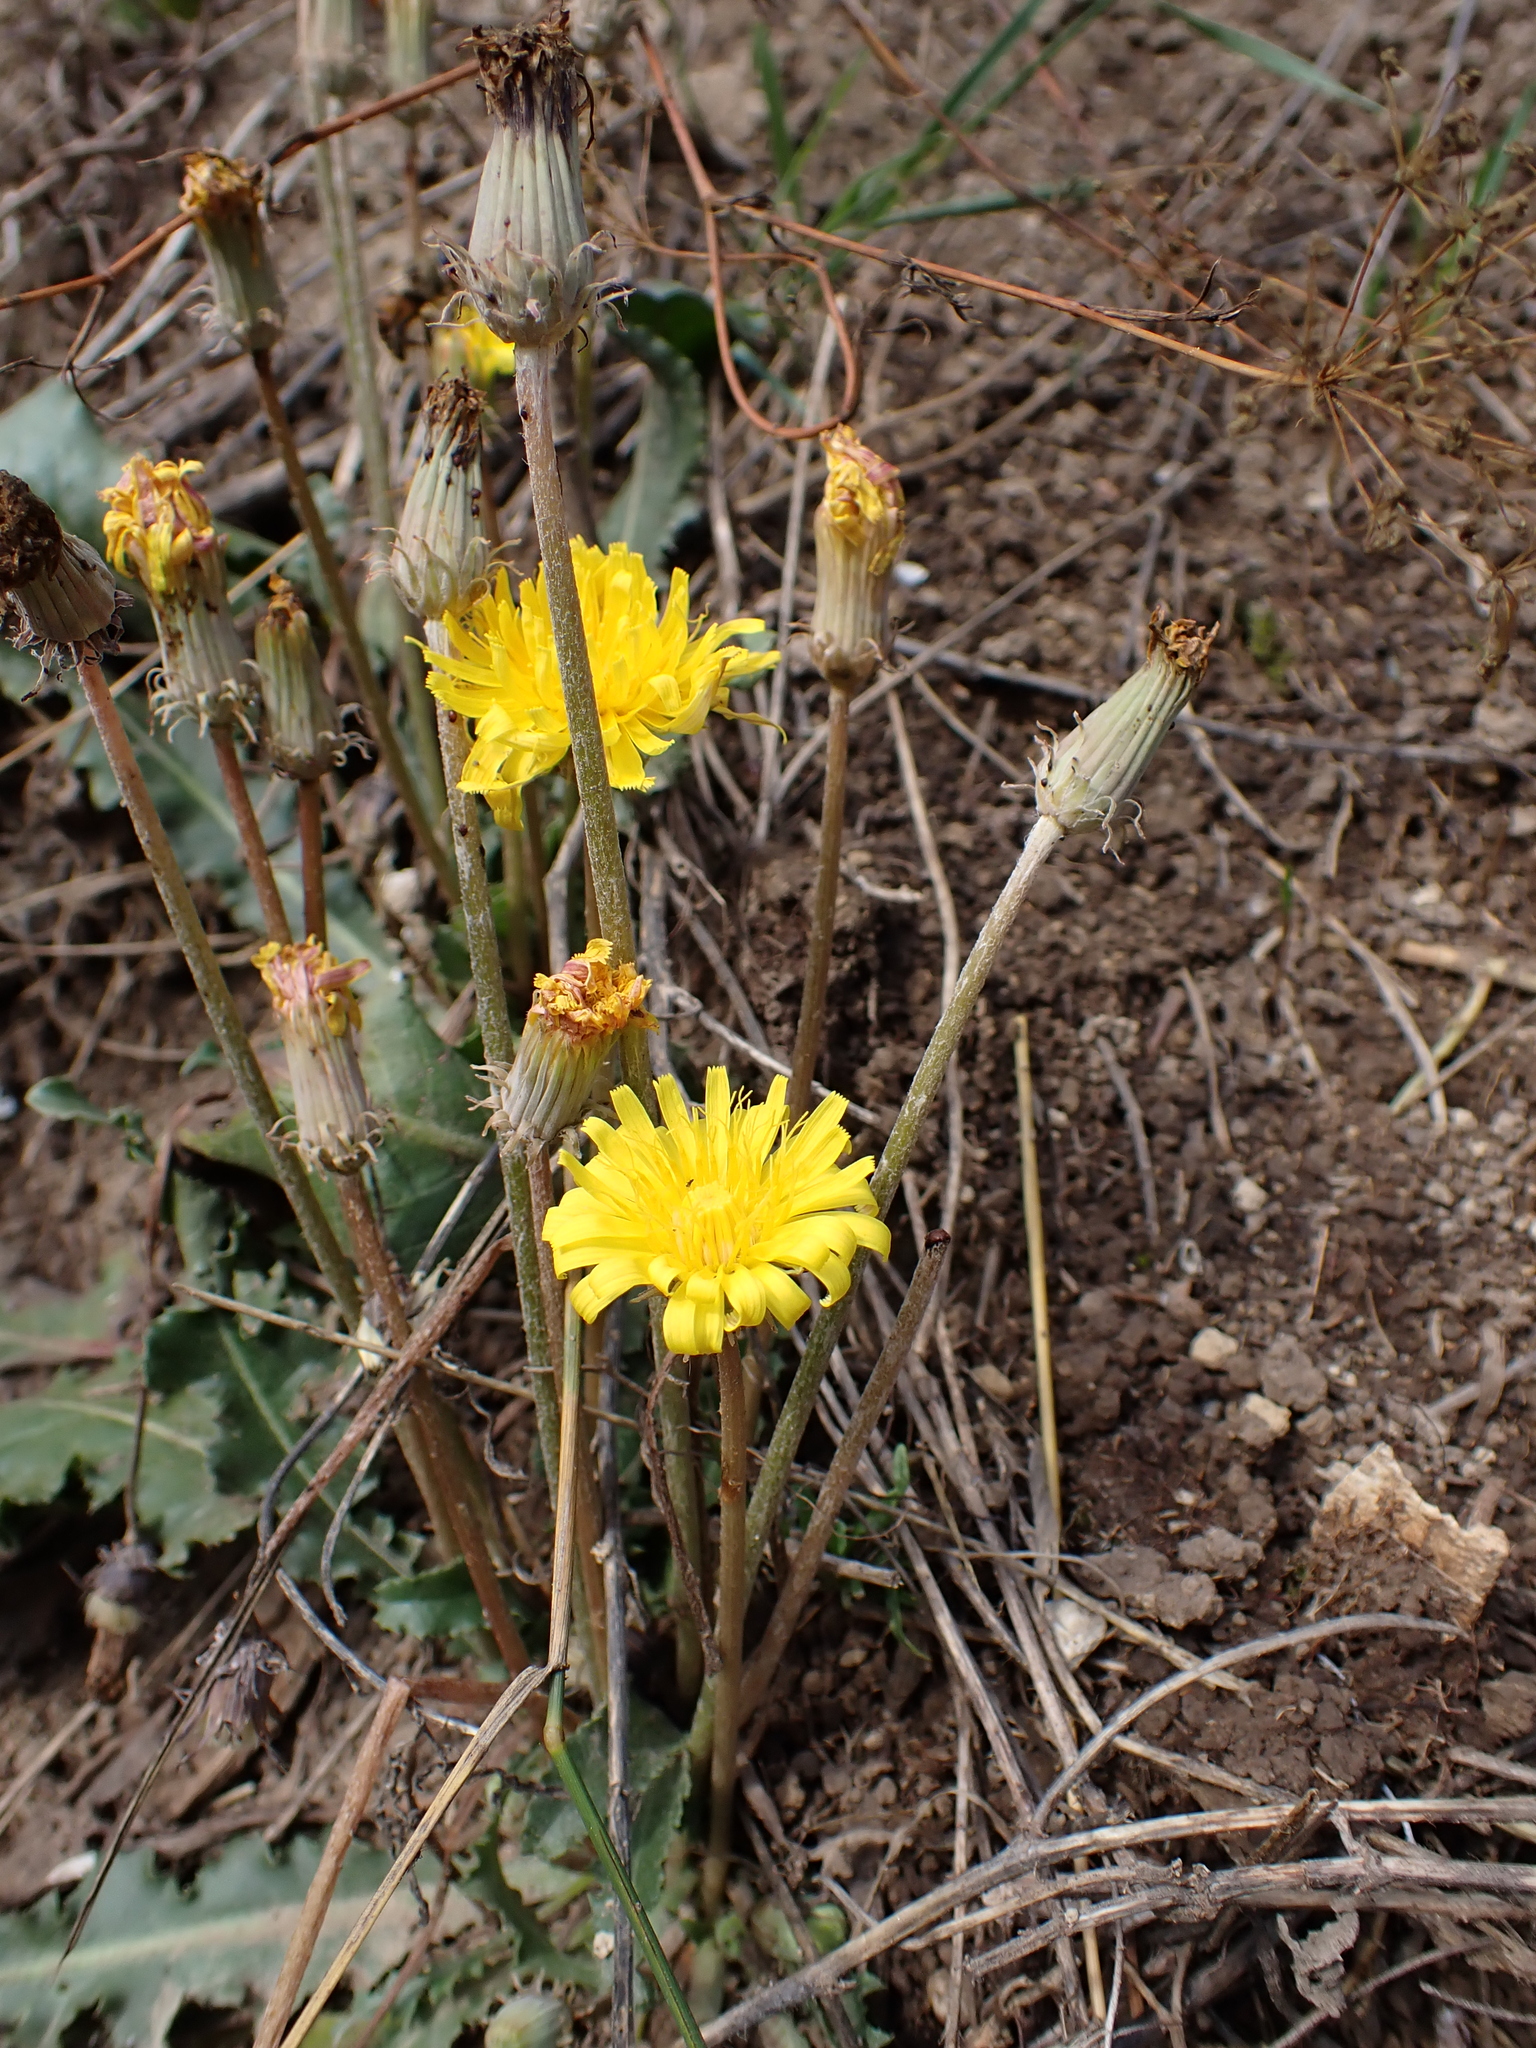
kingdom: Plantae
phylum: Tracheophyta
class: Magnoliopsida
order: Asterales
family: Asteraceae
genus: Taraxacum
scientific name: Taraxacum serotinum
